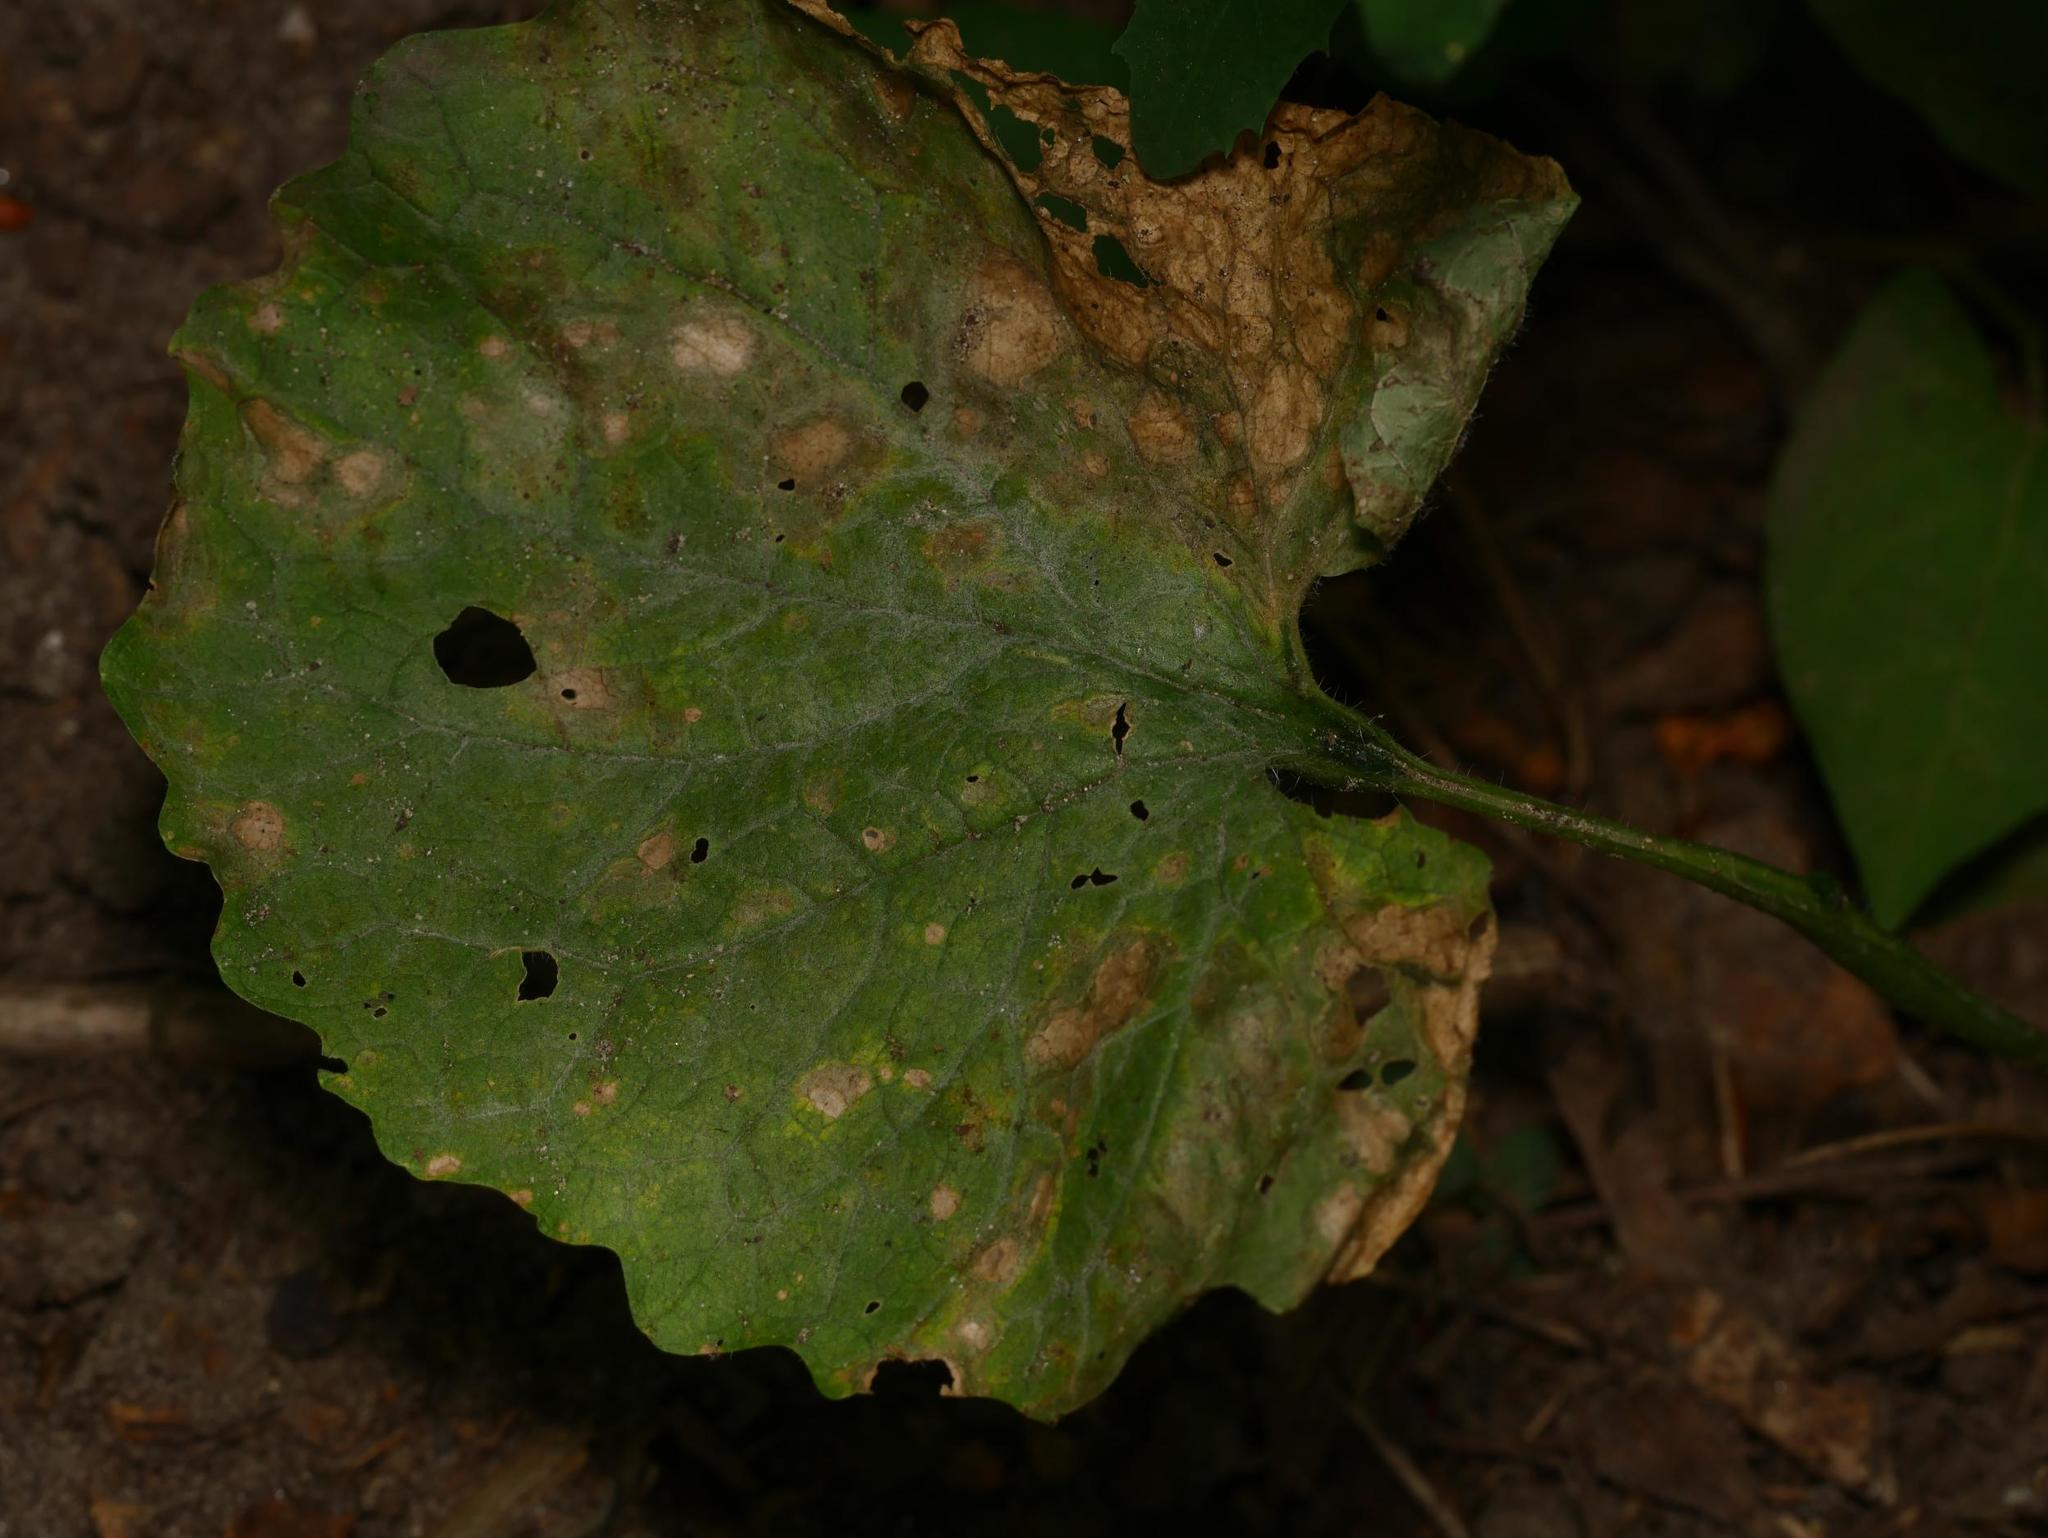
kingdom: Plantae
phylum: Tracheophyta
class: Magnoliopsida
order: Brassicales
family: Brassicaceae
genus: Alliaria
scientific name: Alliaria petiolata
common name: Garlic mustard
